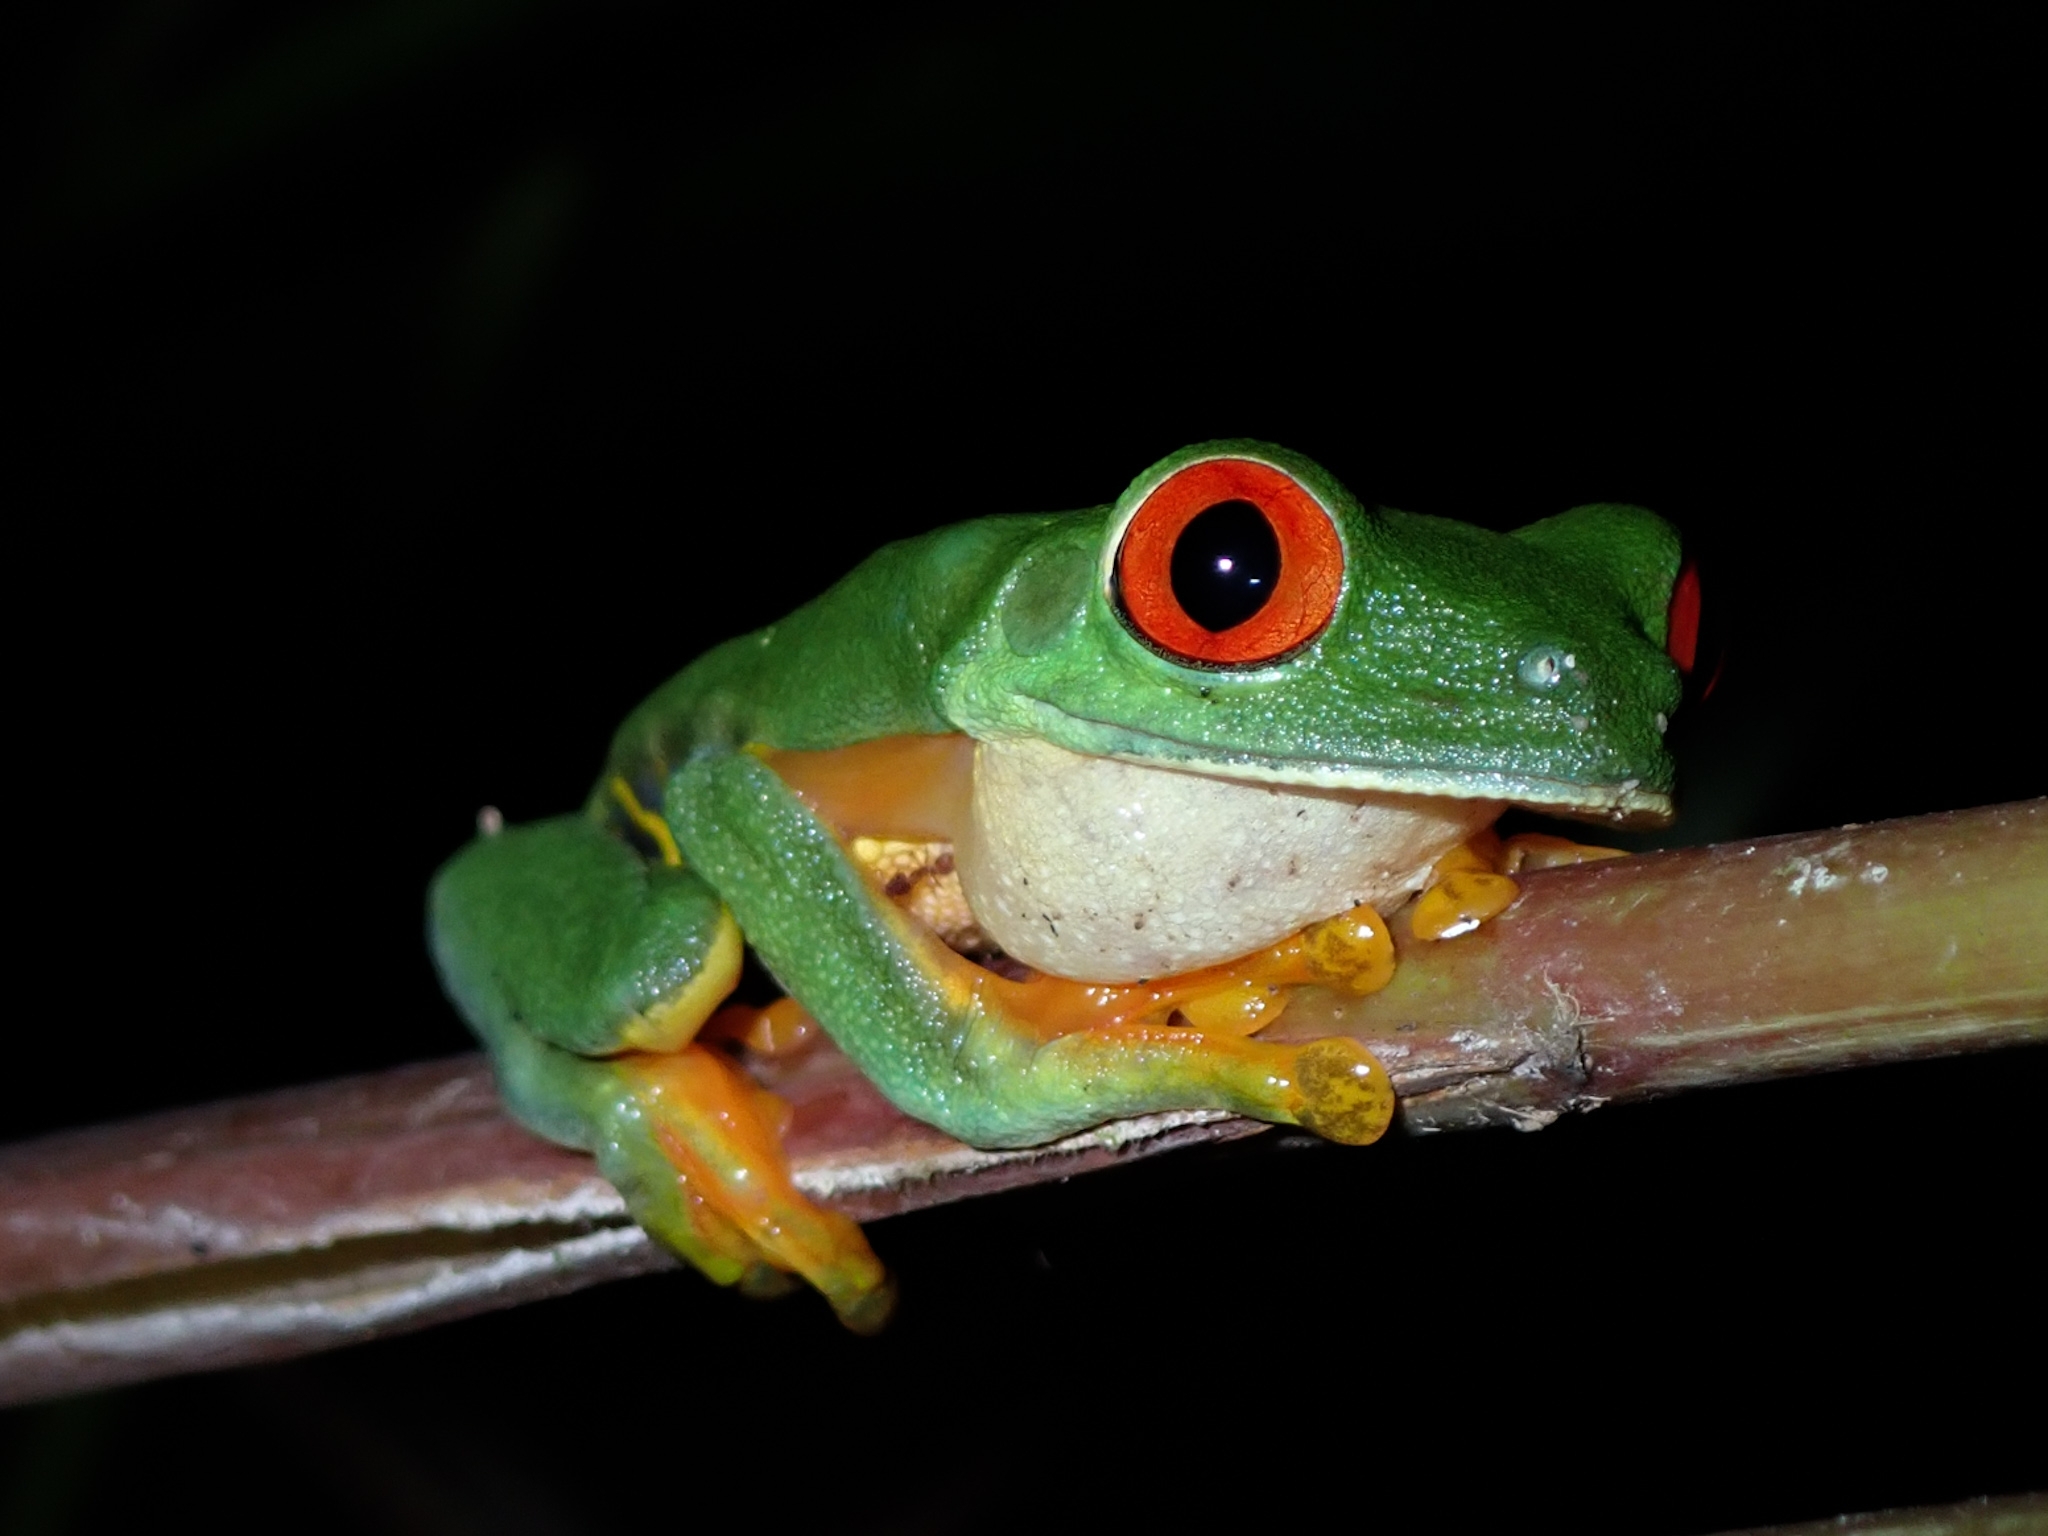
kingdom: Animalia
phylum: Chordata
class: Amphibia
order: Anura
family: Phyllomedusidae
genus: Agalychnis
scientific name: Agalychnis
